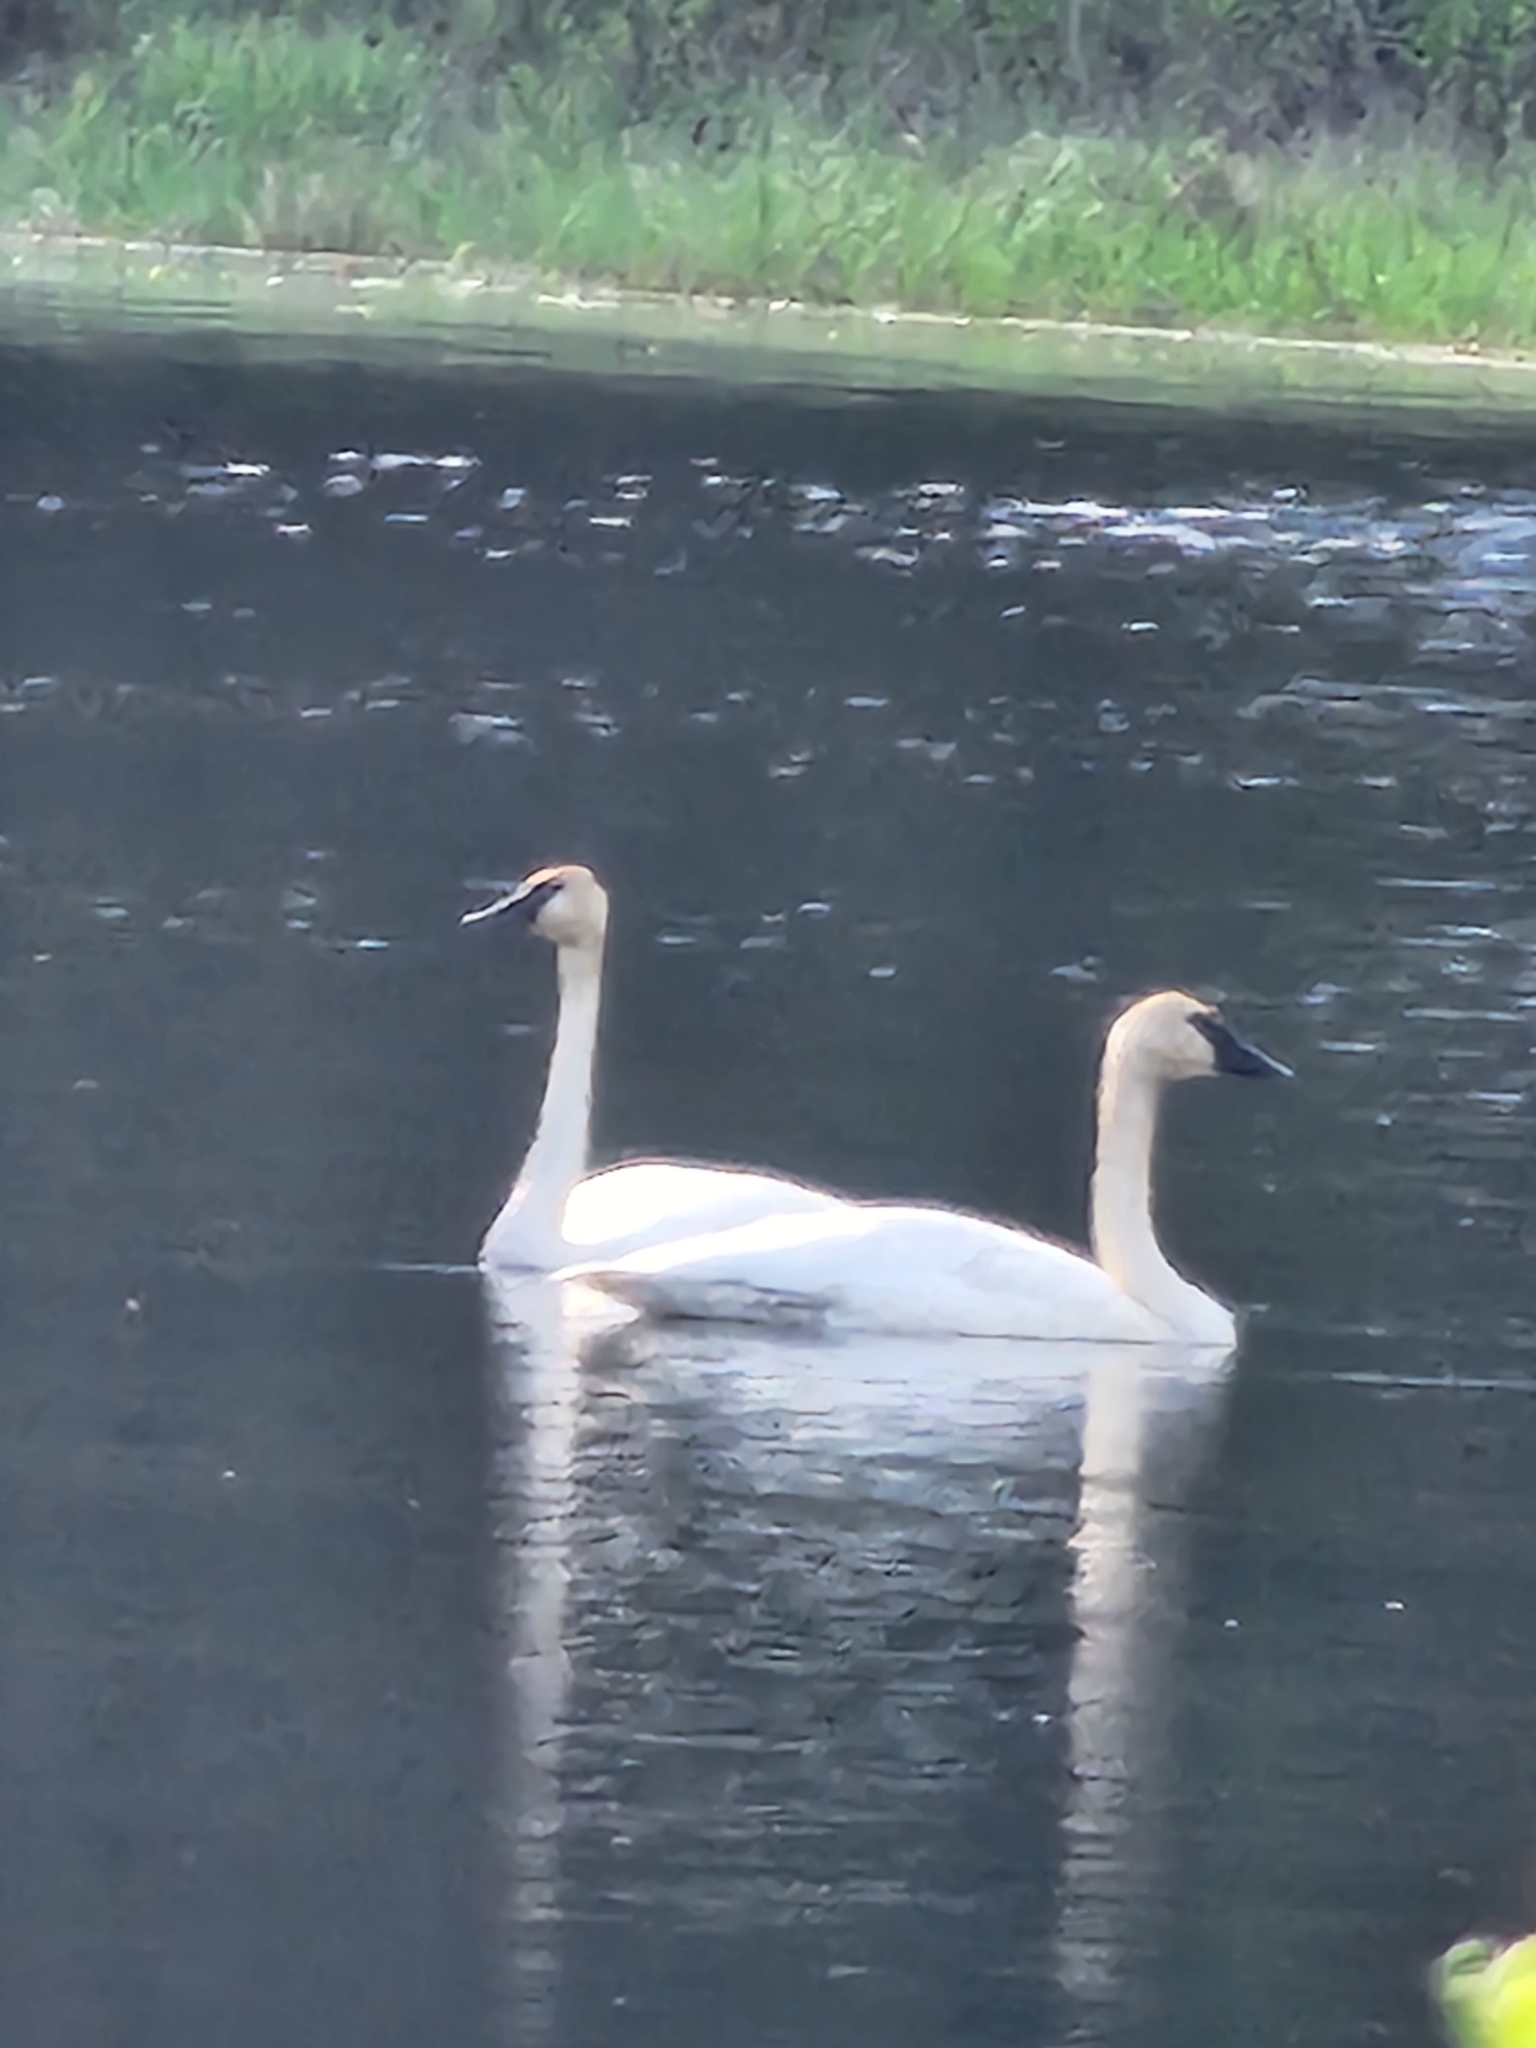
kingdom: Animalia
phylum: Chordata
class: Aves
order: Anseriformes
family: Anatidae
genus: Cygnus
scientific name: Cygnus buccinator
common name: Trumpeter swan
